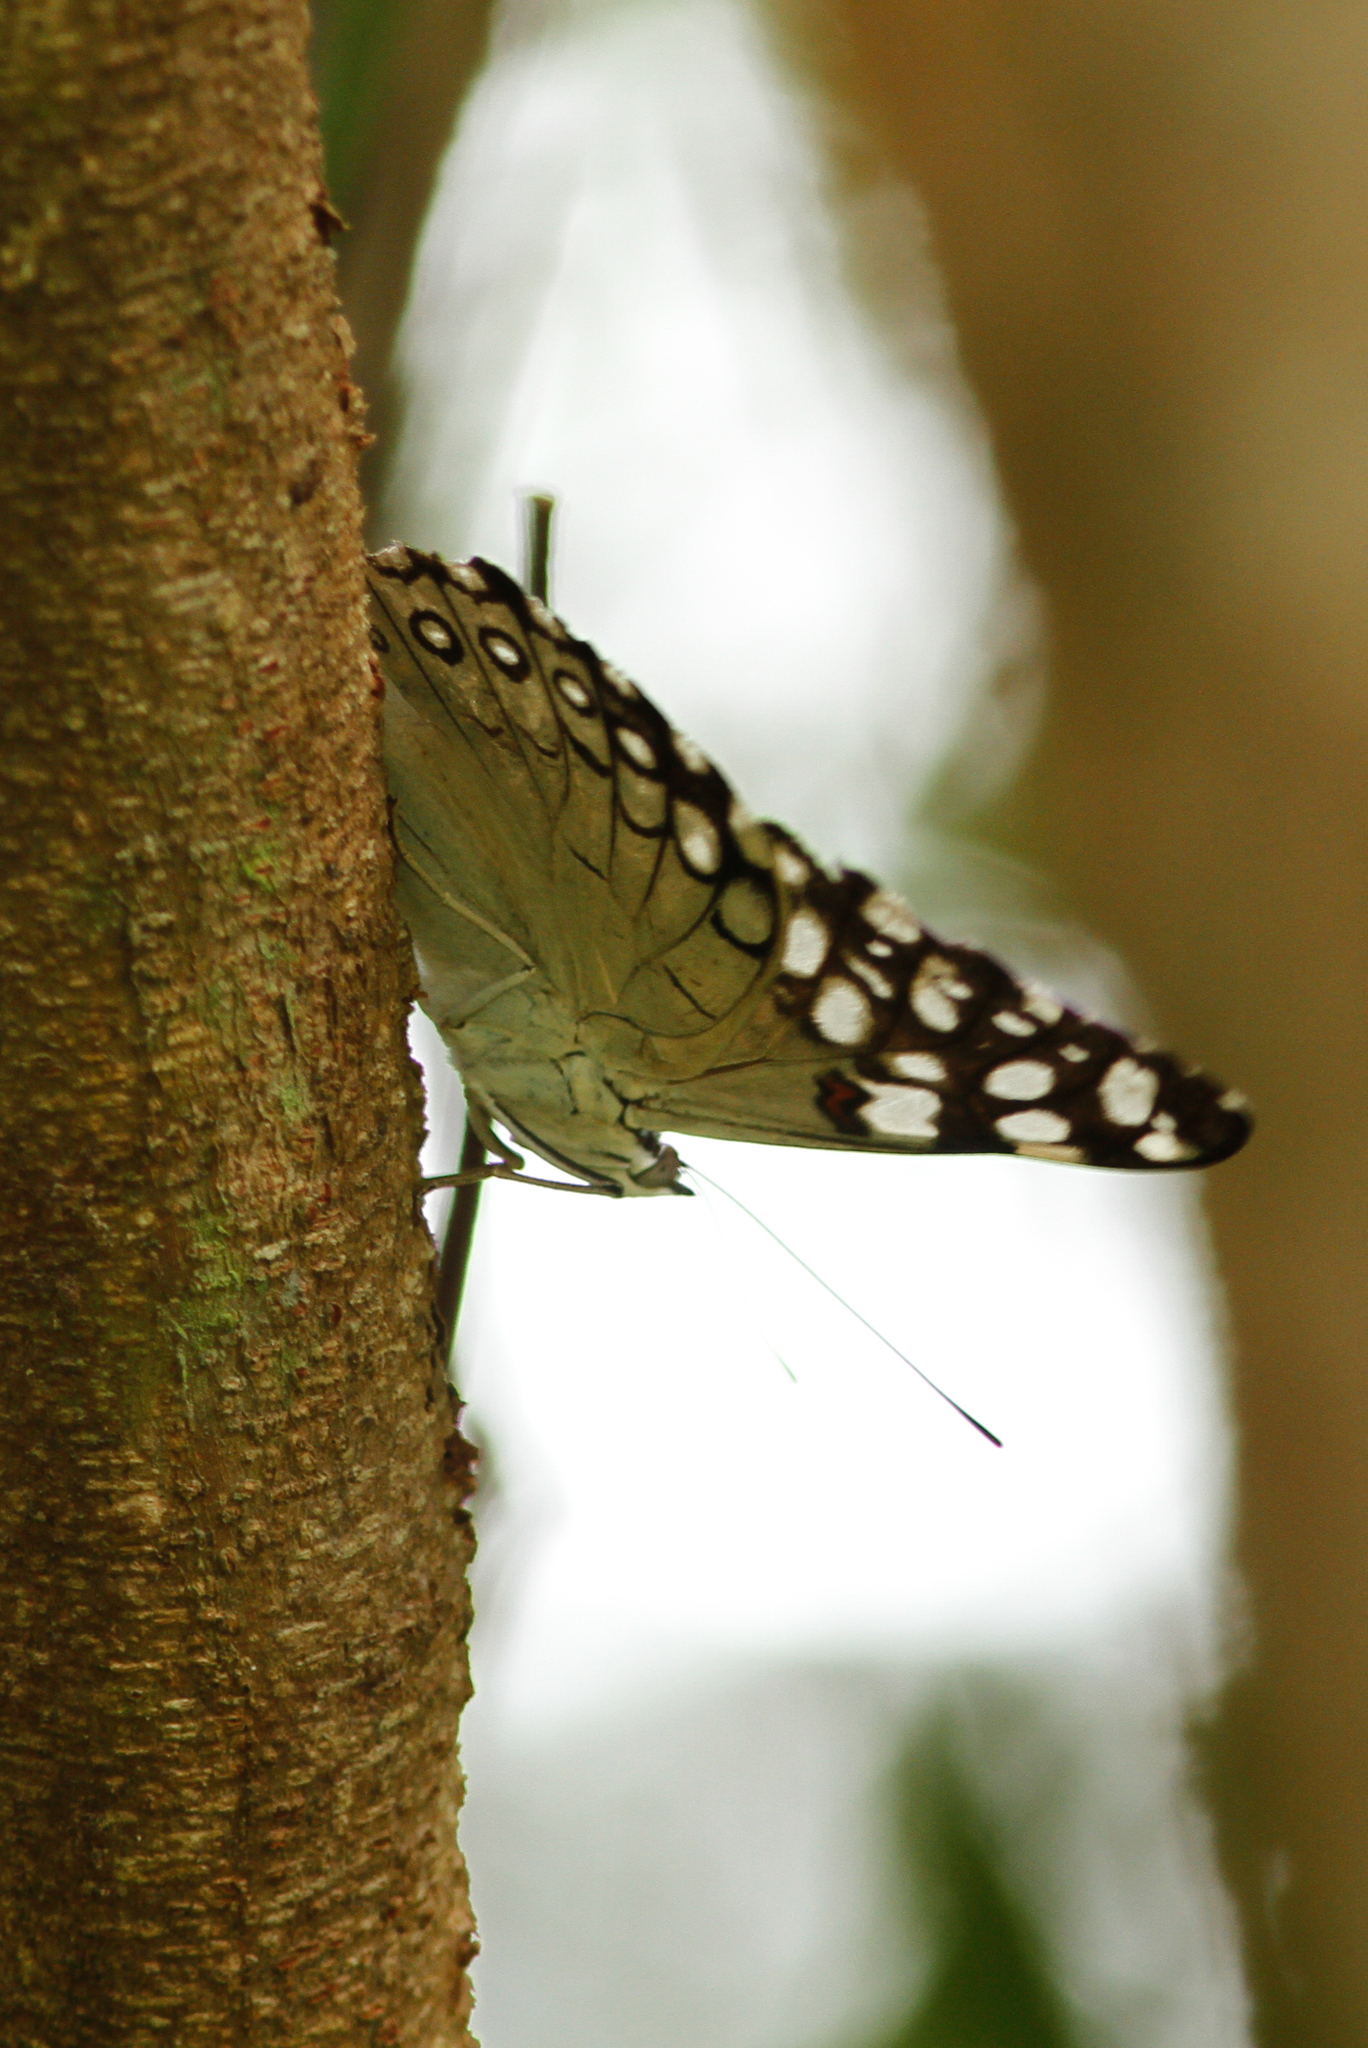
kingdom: Animalia
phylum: Arthropoda
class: Insecta
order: Lepidoptera
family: Nymphalidae
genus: Hamadryas
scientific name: Hamadryas feronia
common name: Variable cracker
